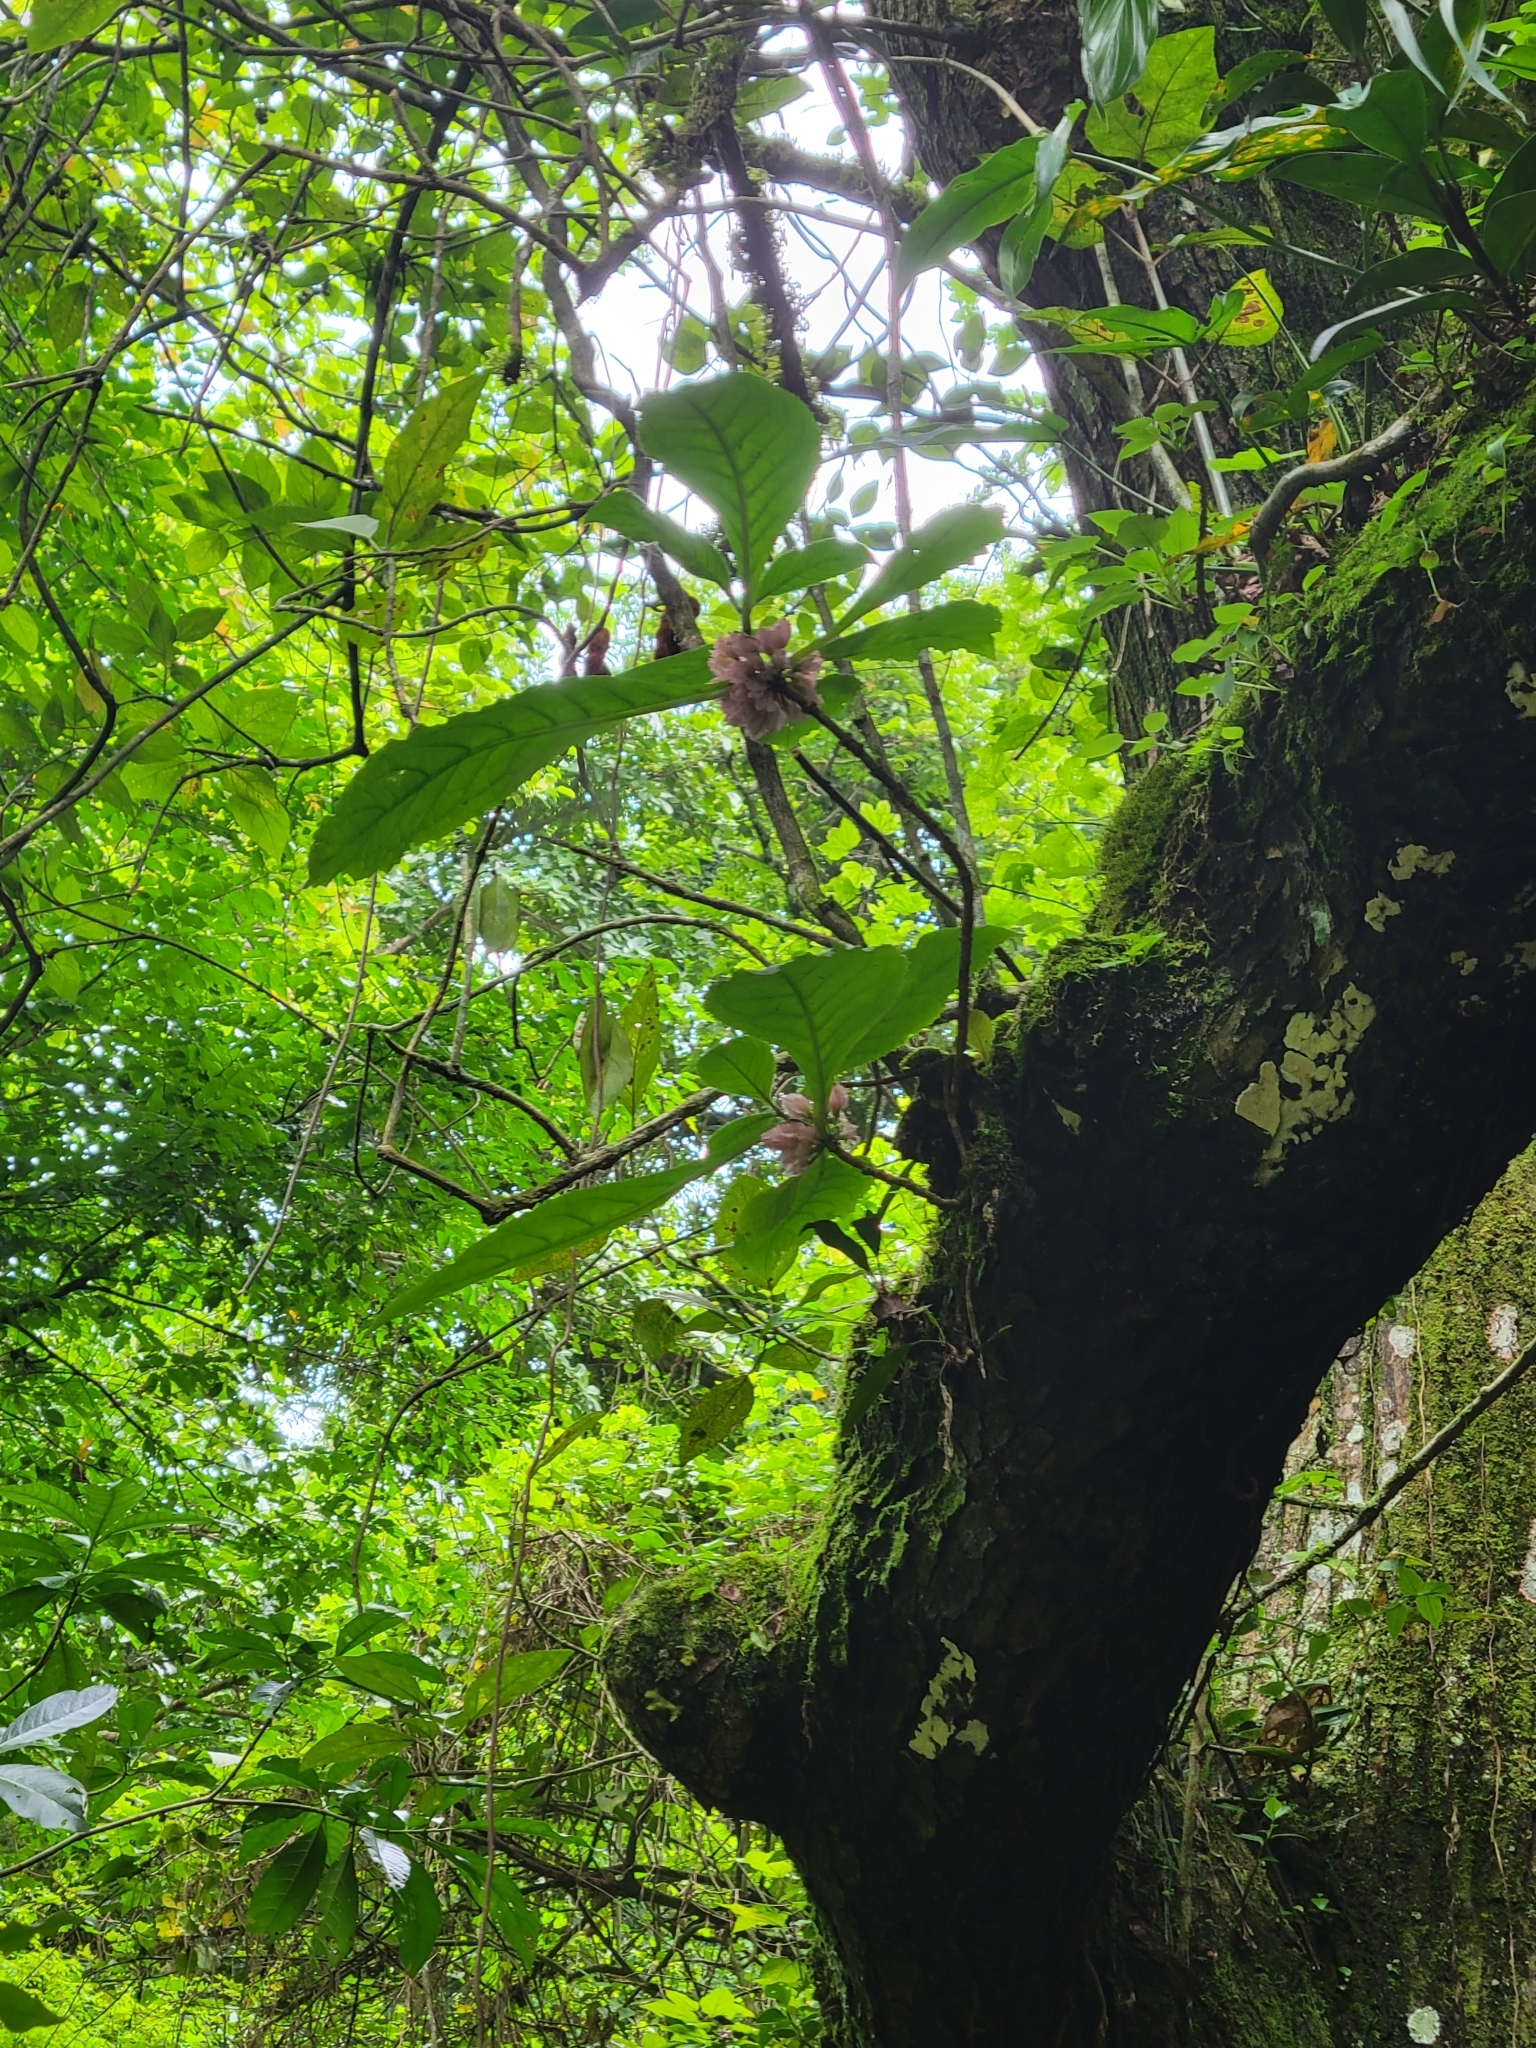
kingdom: Plantae
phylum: Tracheophyta
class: Magnoliopsida
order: Lamiales
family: Gesneriaceae
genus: Drymonia
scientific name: Drymonia parviflora
